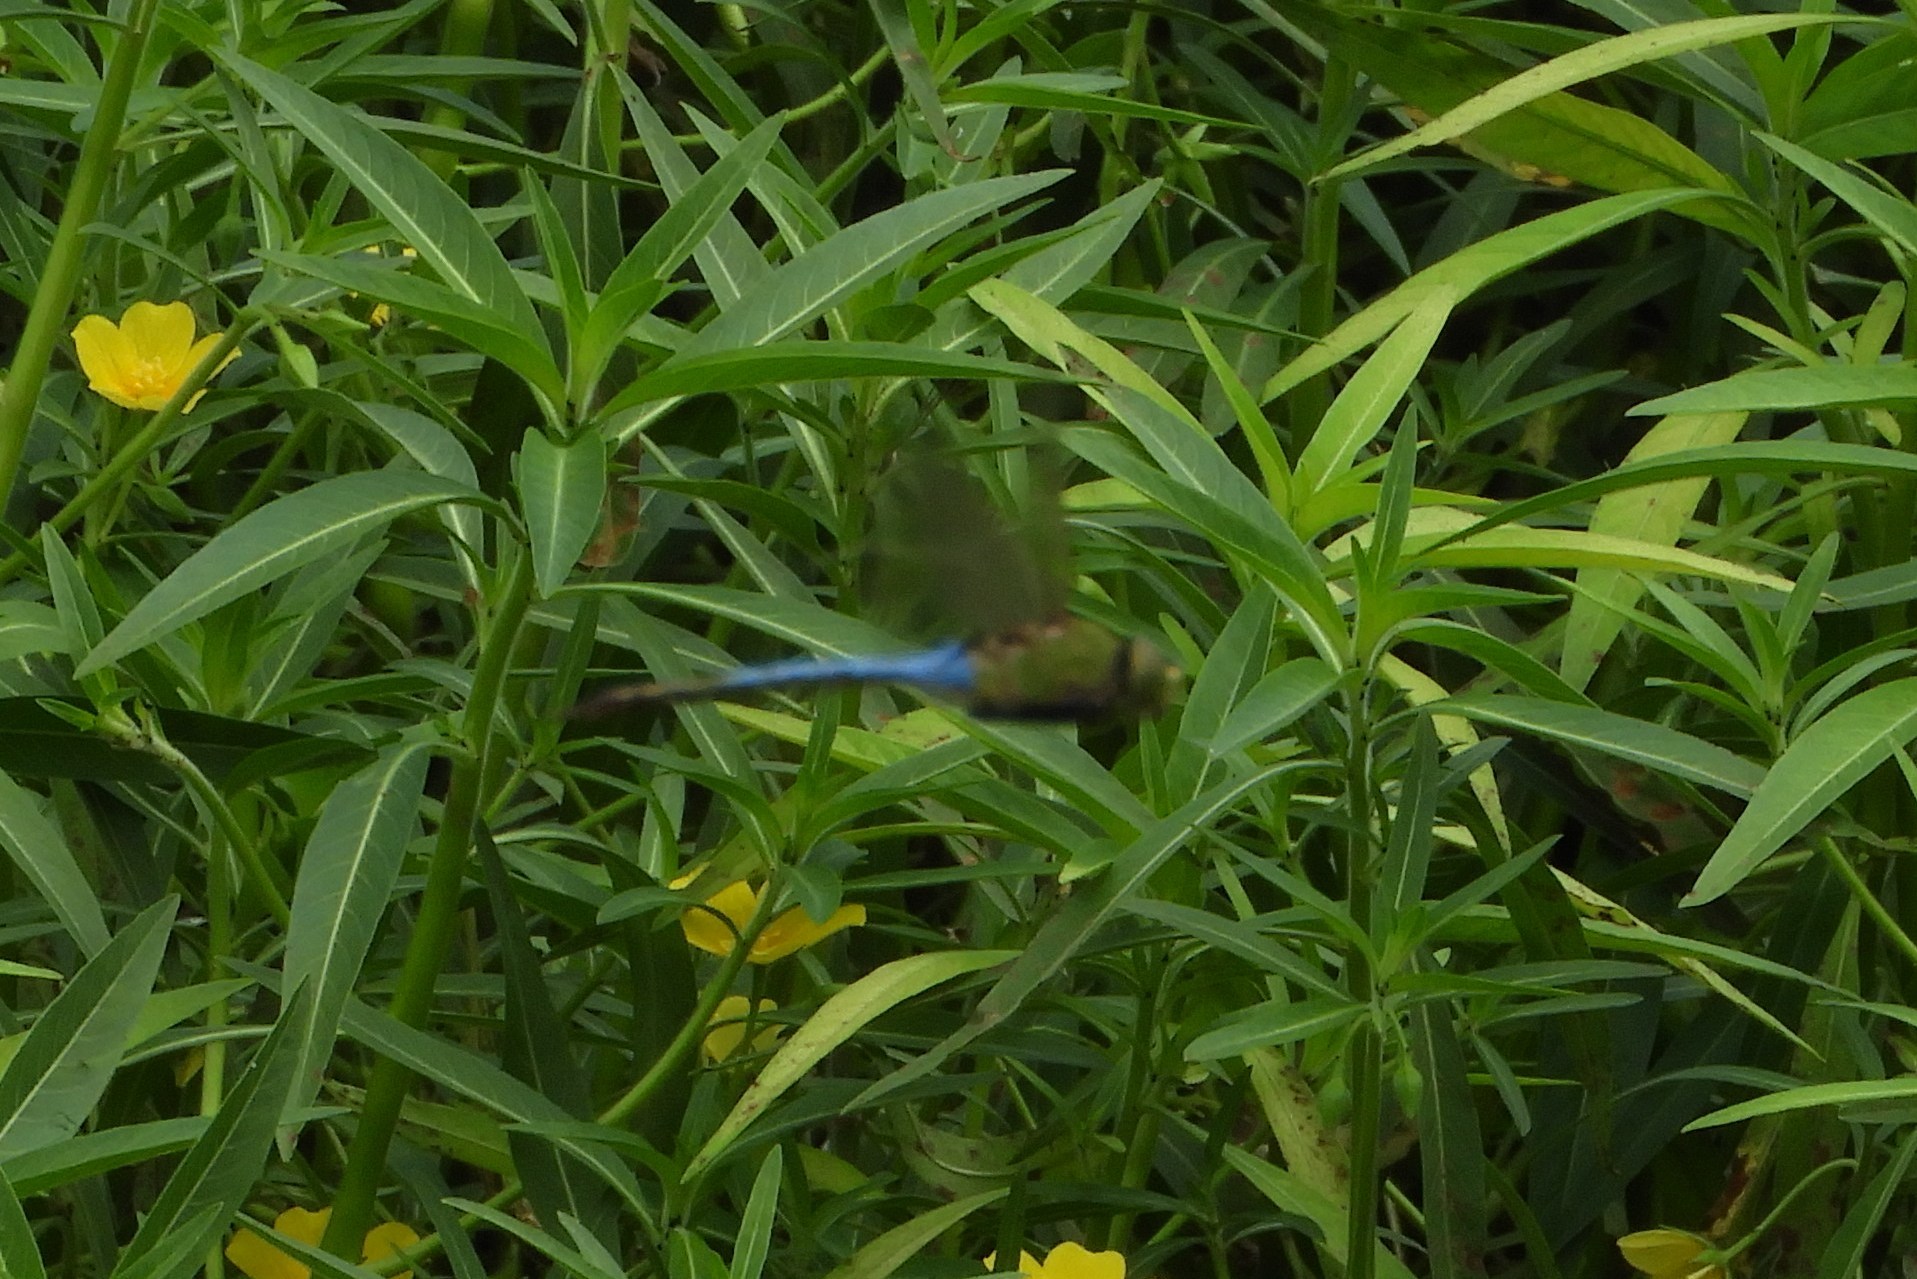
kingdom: Animalia
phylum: Arthropoda
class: Insecta
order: Odonata
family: Aeshnidae
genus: Anax
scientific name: Anax junius
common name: Common green darner
